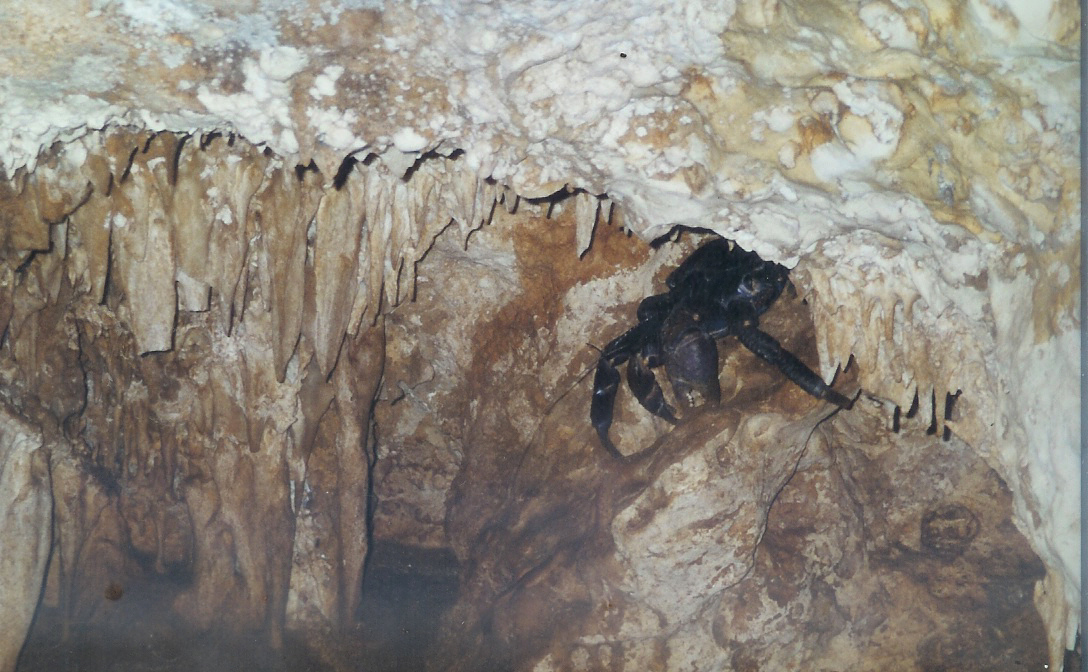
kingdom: Animalia
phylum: Arthropoda
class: Malacostraca
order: Decapoda
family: Coenobitidae
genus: Birgus
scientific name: Birgus latro
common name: Coconut crab
